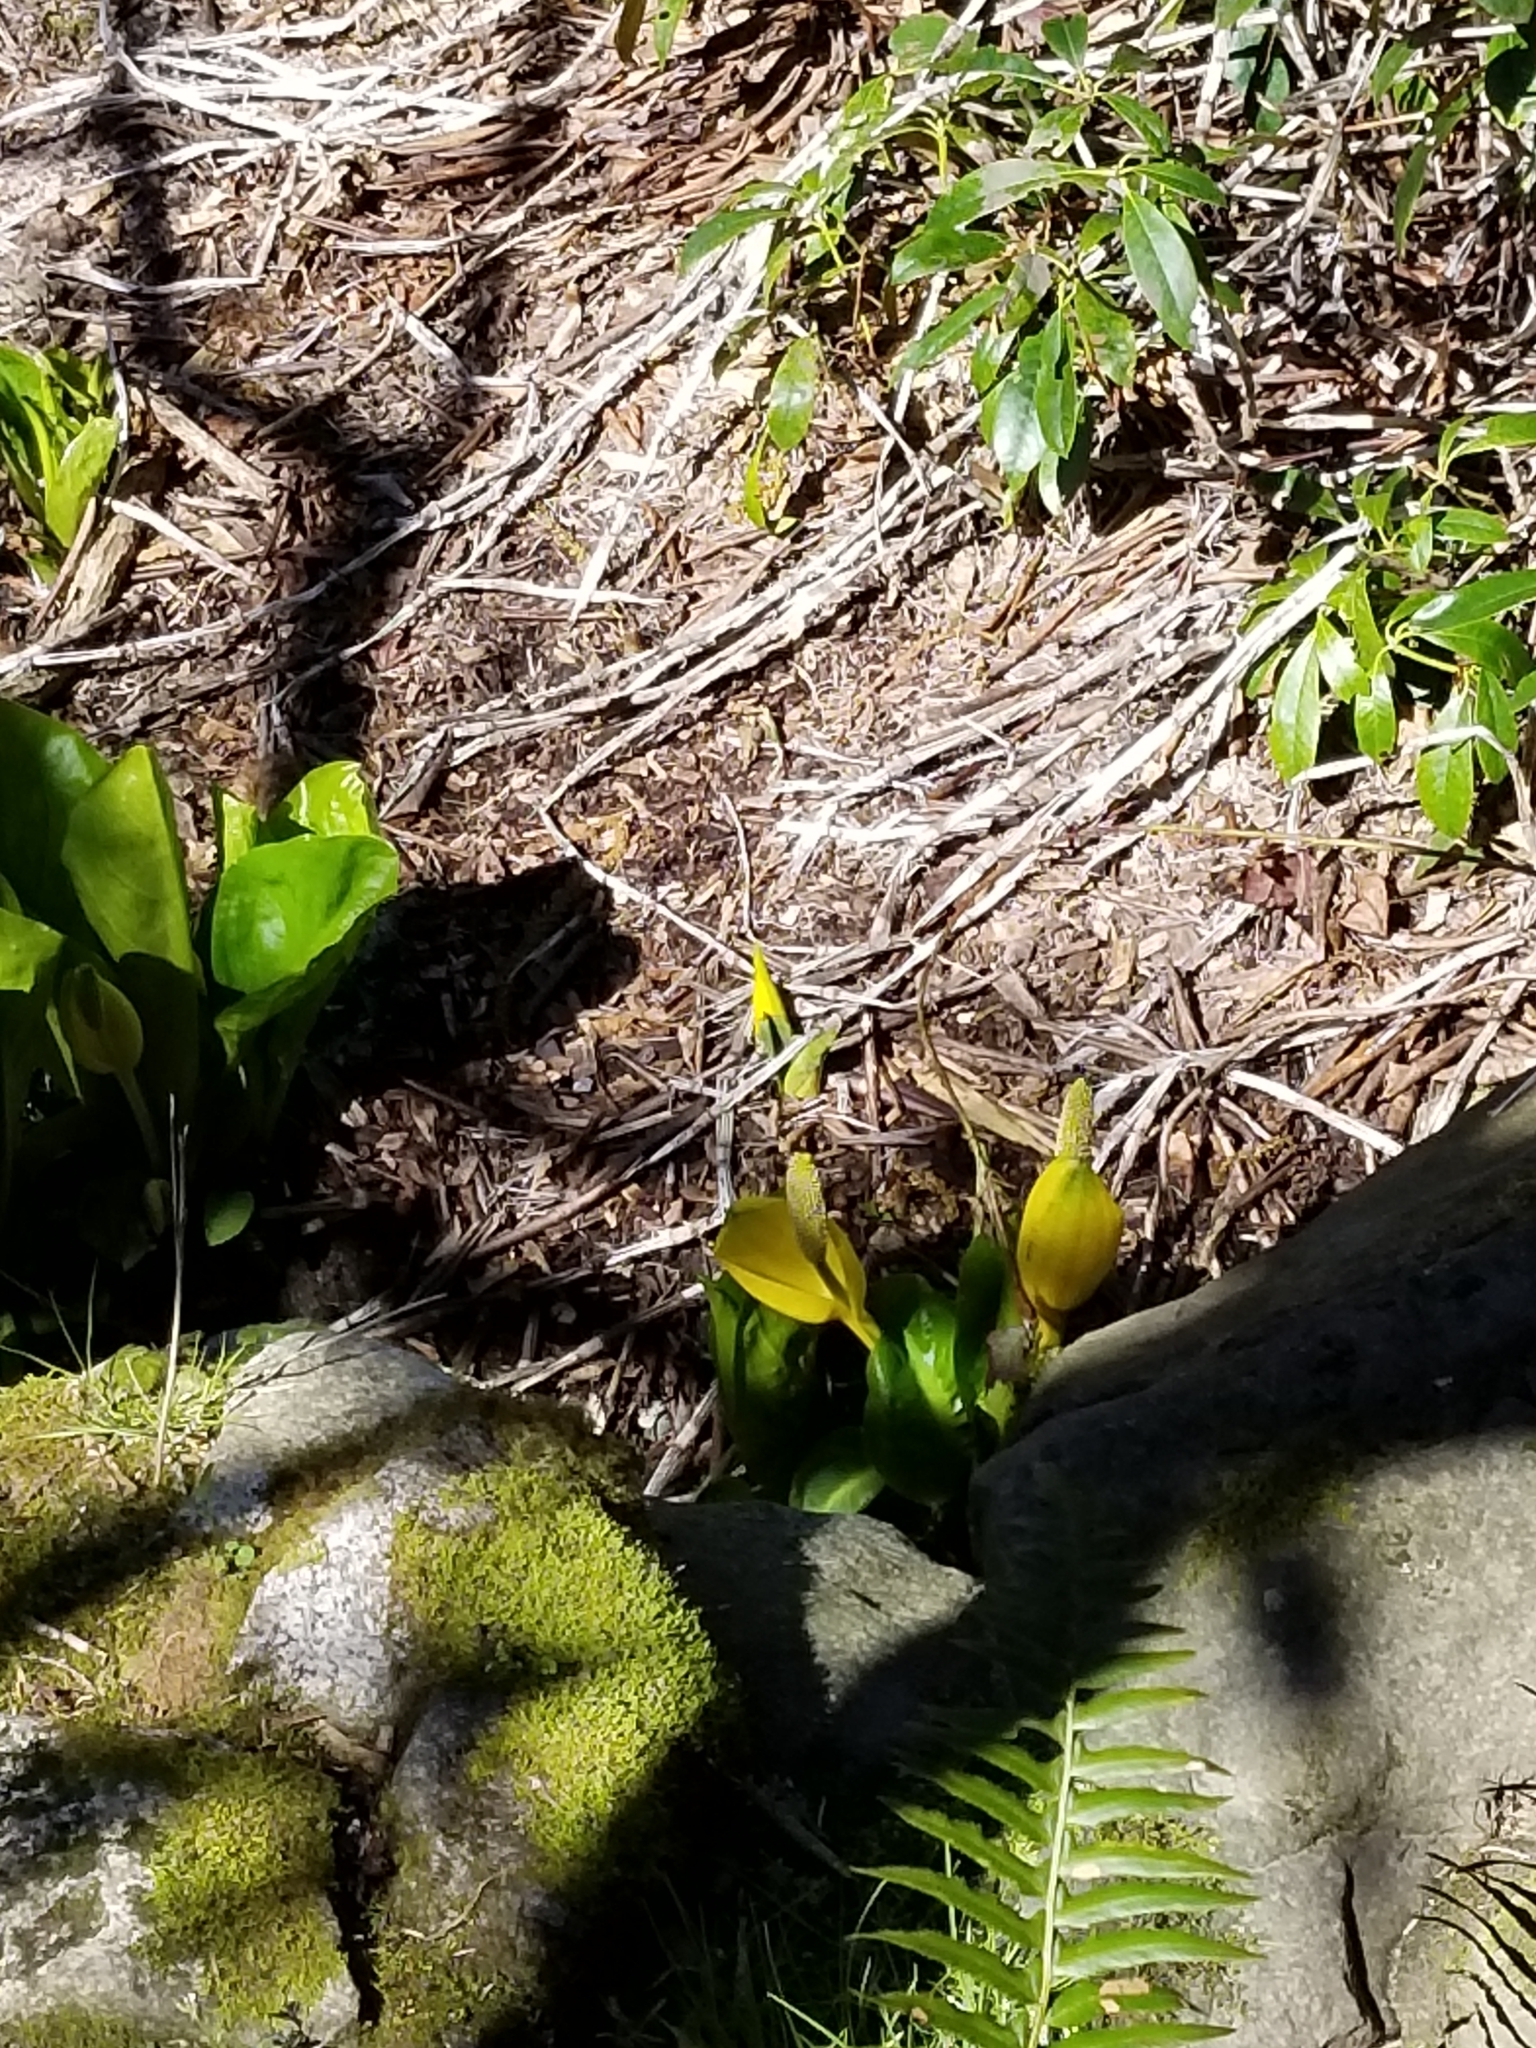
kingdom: Plantae
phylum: Tracheophyta
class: Liliopsida
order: Alismatales
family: Araceae
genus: Lysichiton
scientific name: Lysichiton americanus
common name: American skunk cabbage
